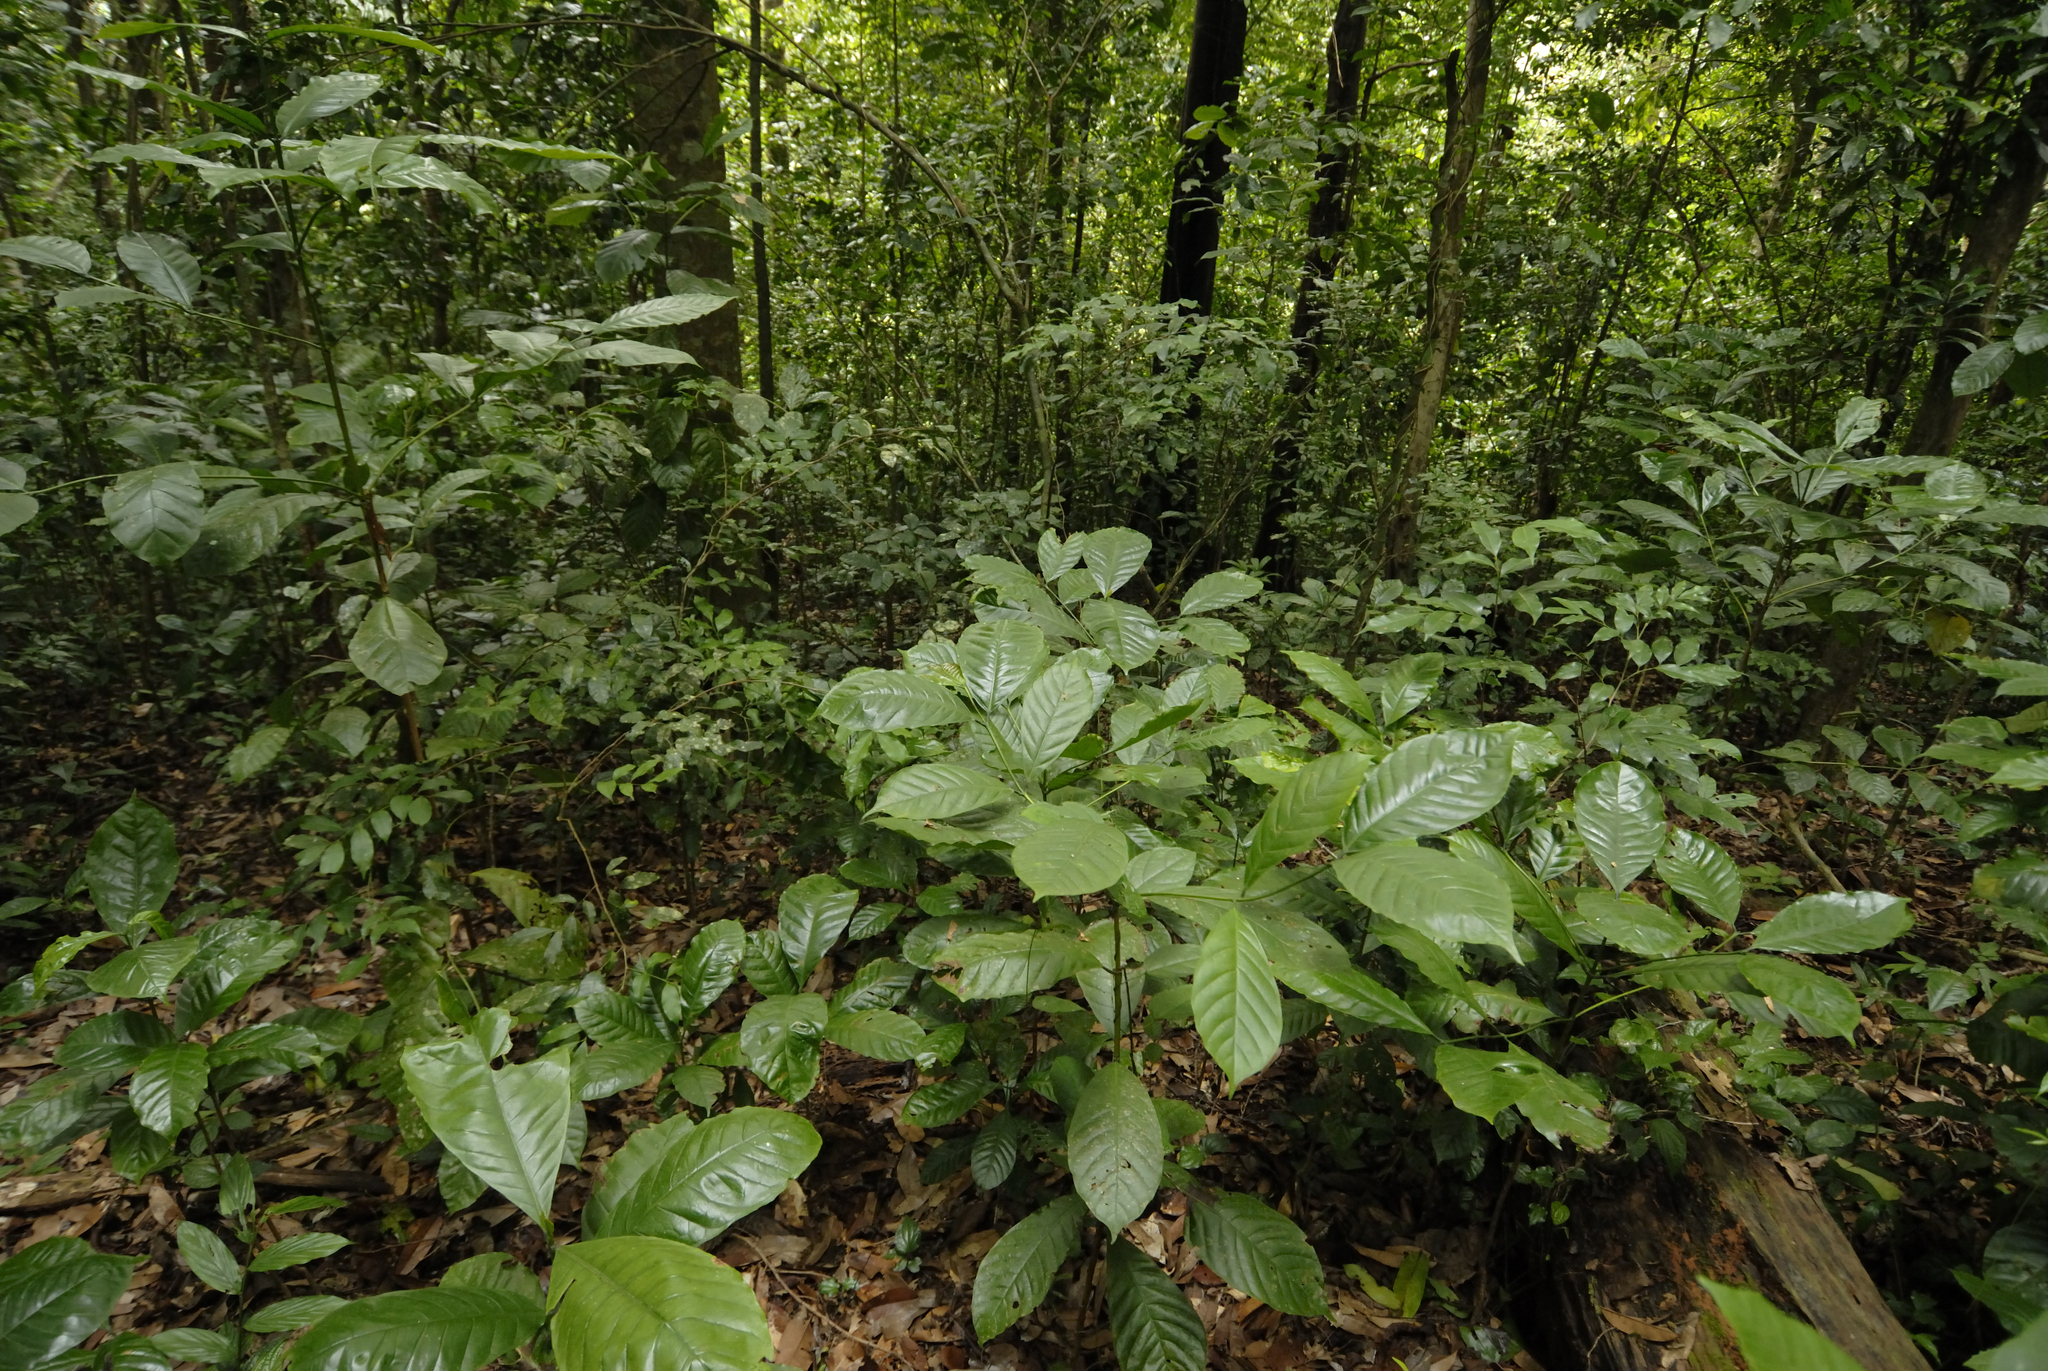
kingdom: Plantae
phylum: Tracheophyta
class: Magnoliopsida
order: Gentianales
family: Rubiaceae
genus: Coffea
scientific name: Coffea canephora
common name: Robusta coffee
